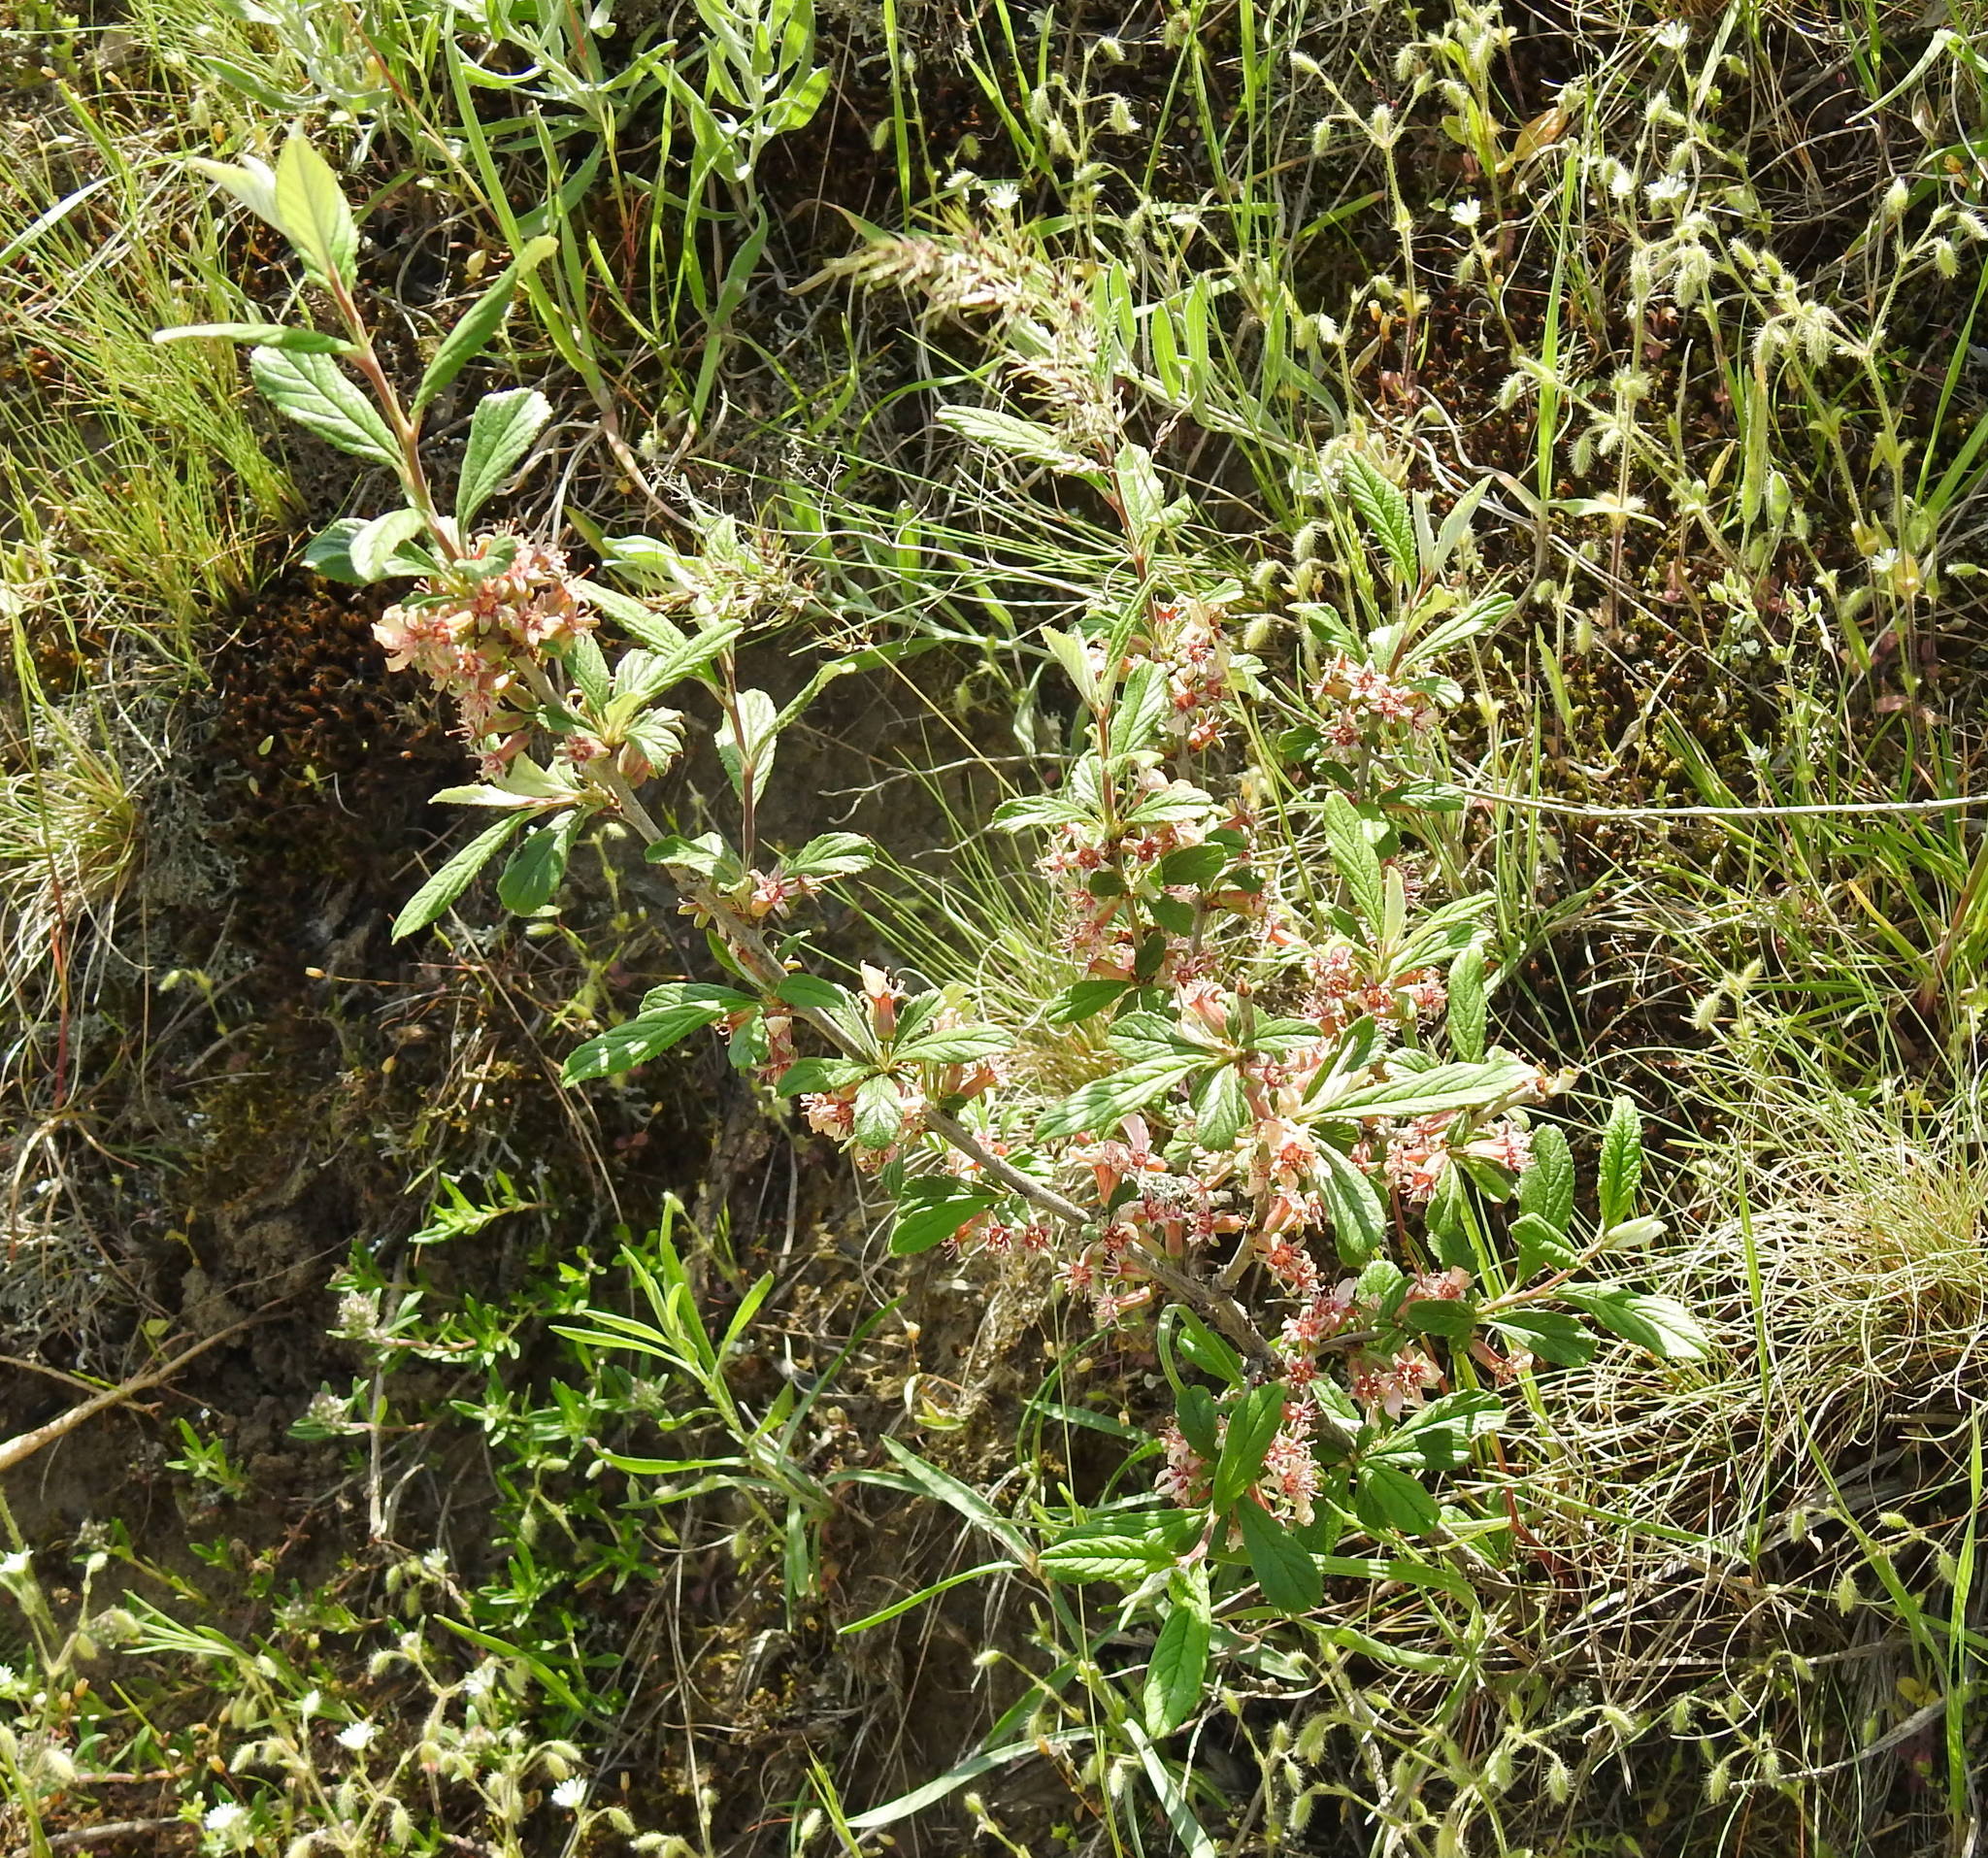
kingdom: Plantae
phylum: Tracheophyta
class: Magnoliopsida
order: Rosales
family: Rosaceae
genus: Prunus
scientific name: Prunus incana
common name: Willow cherry
